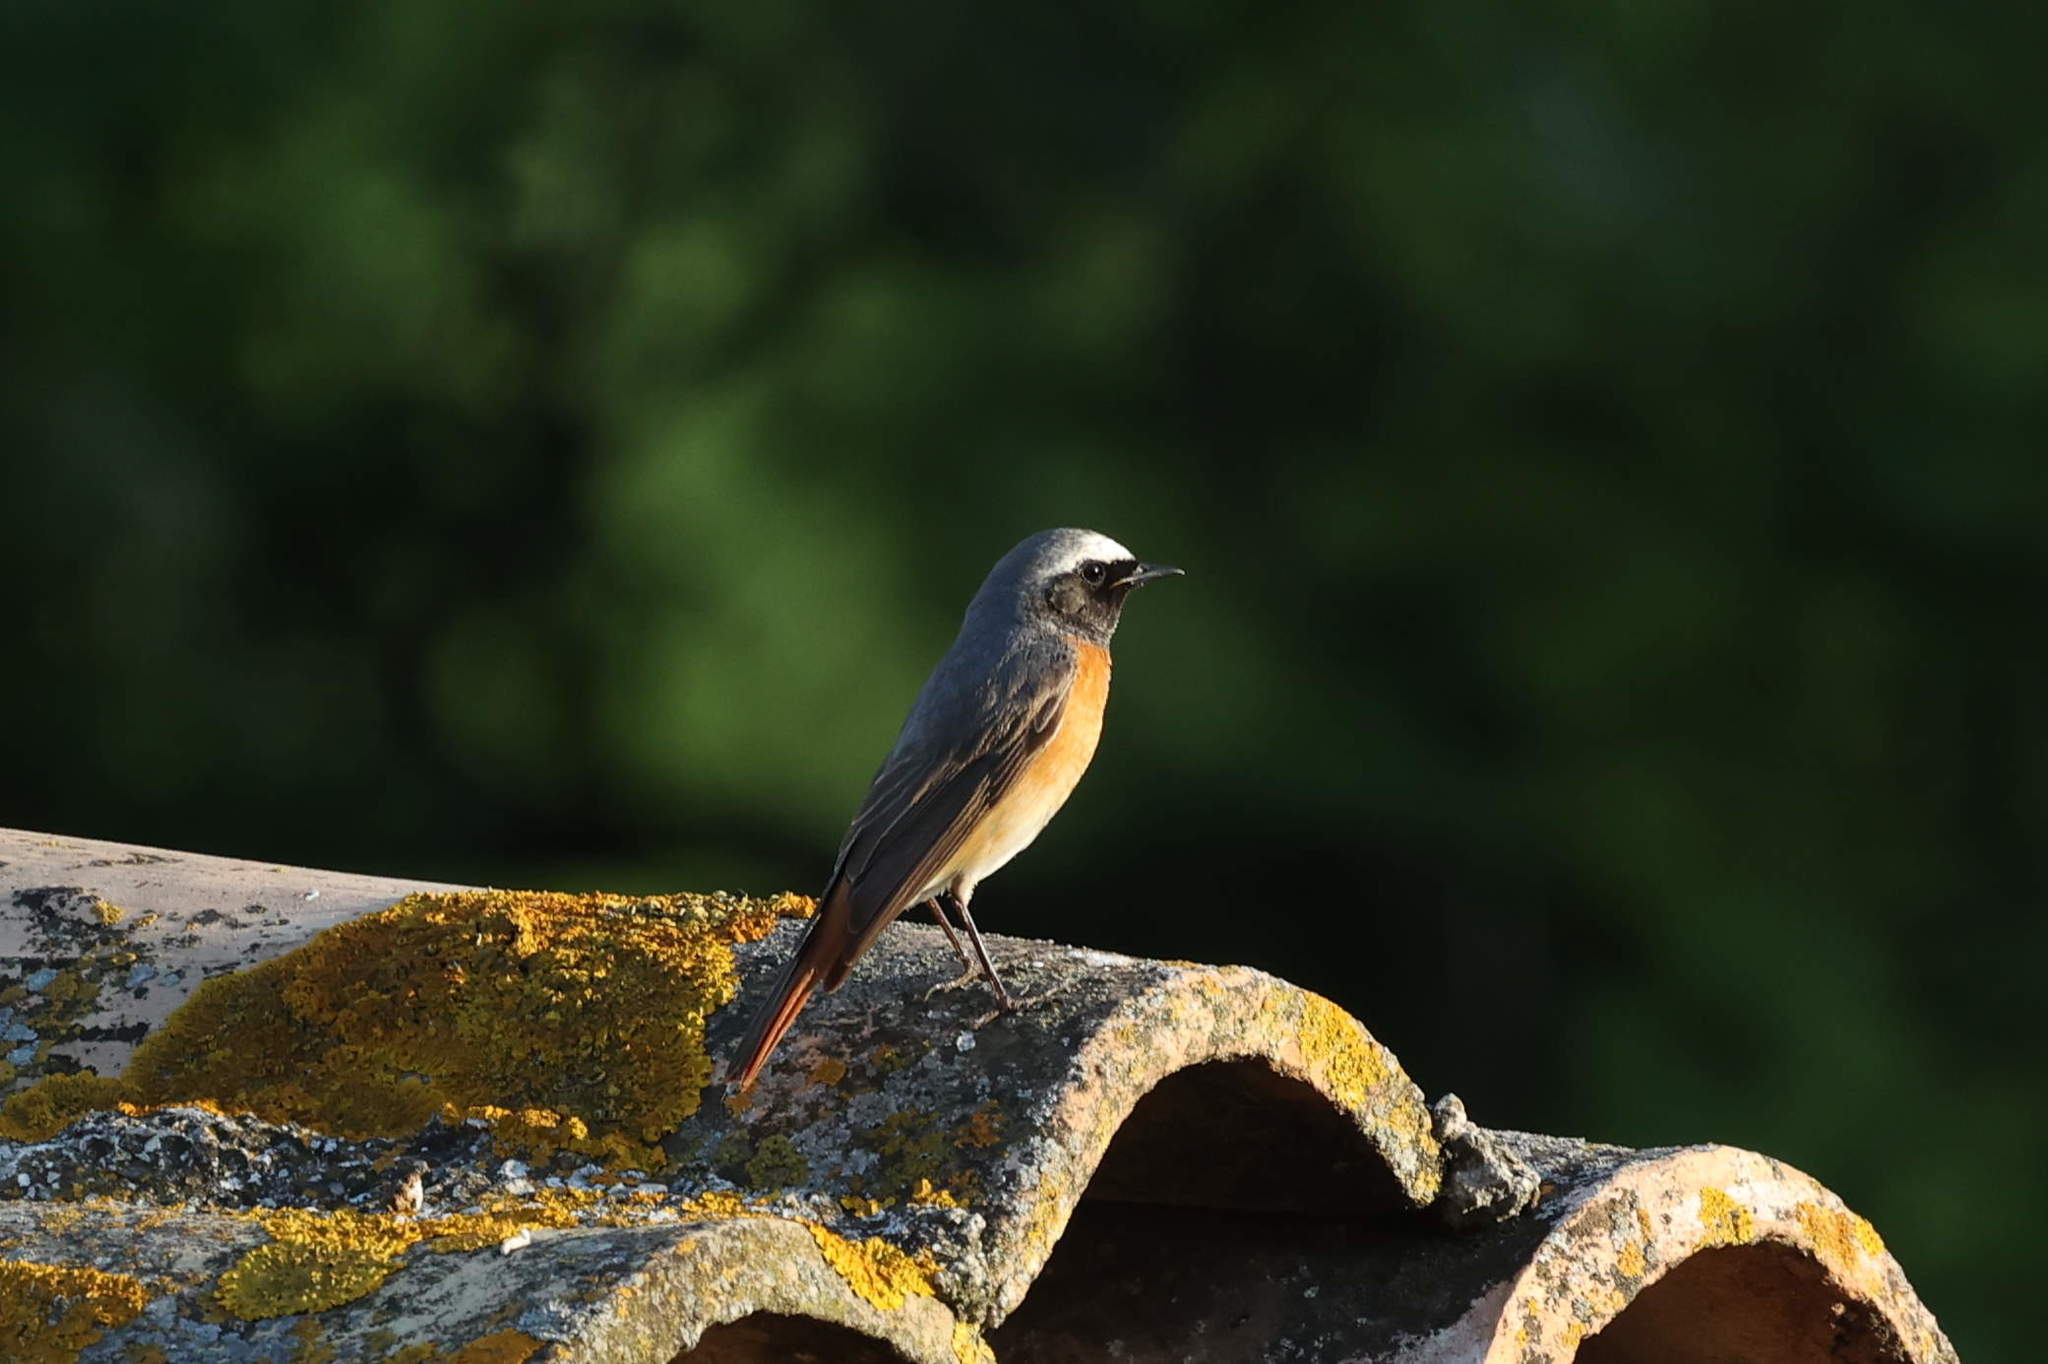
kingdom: Animalia
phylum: Chordata
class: Aves
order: Passeriformes
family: Muscicapidae
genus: Phoenicurus
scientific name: Phoenicurus phoenicurus
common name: Common redstart
